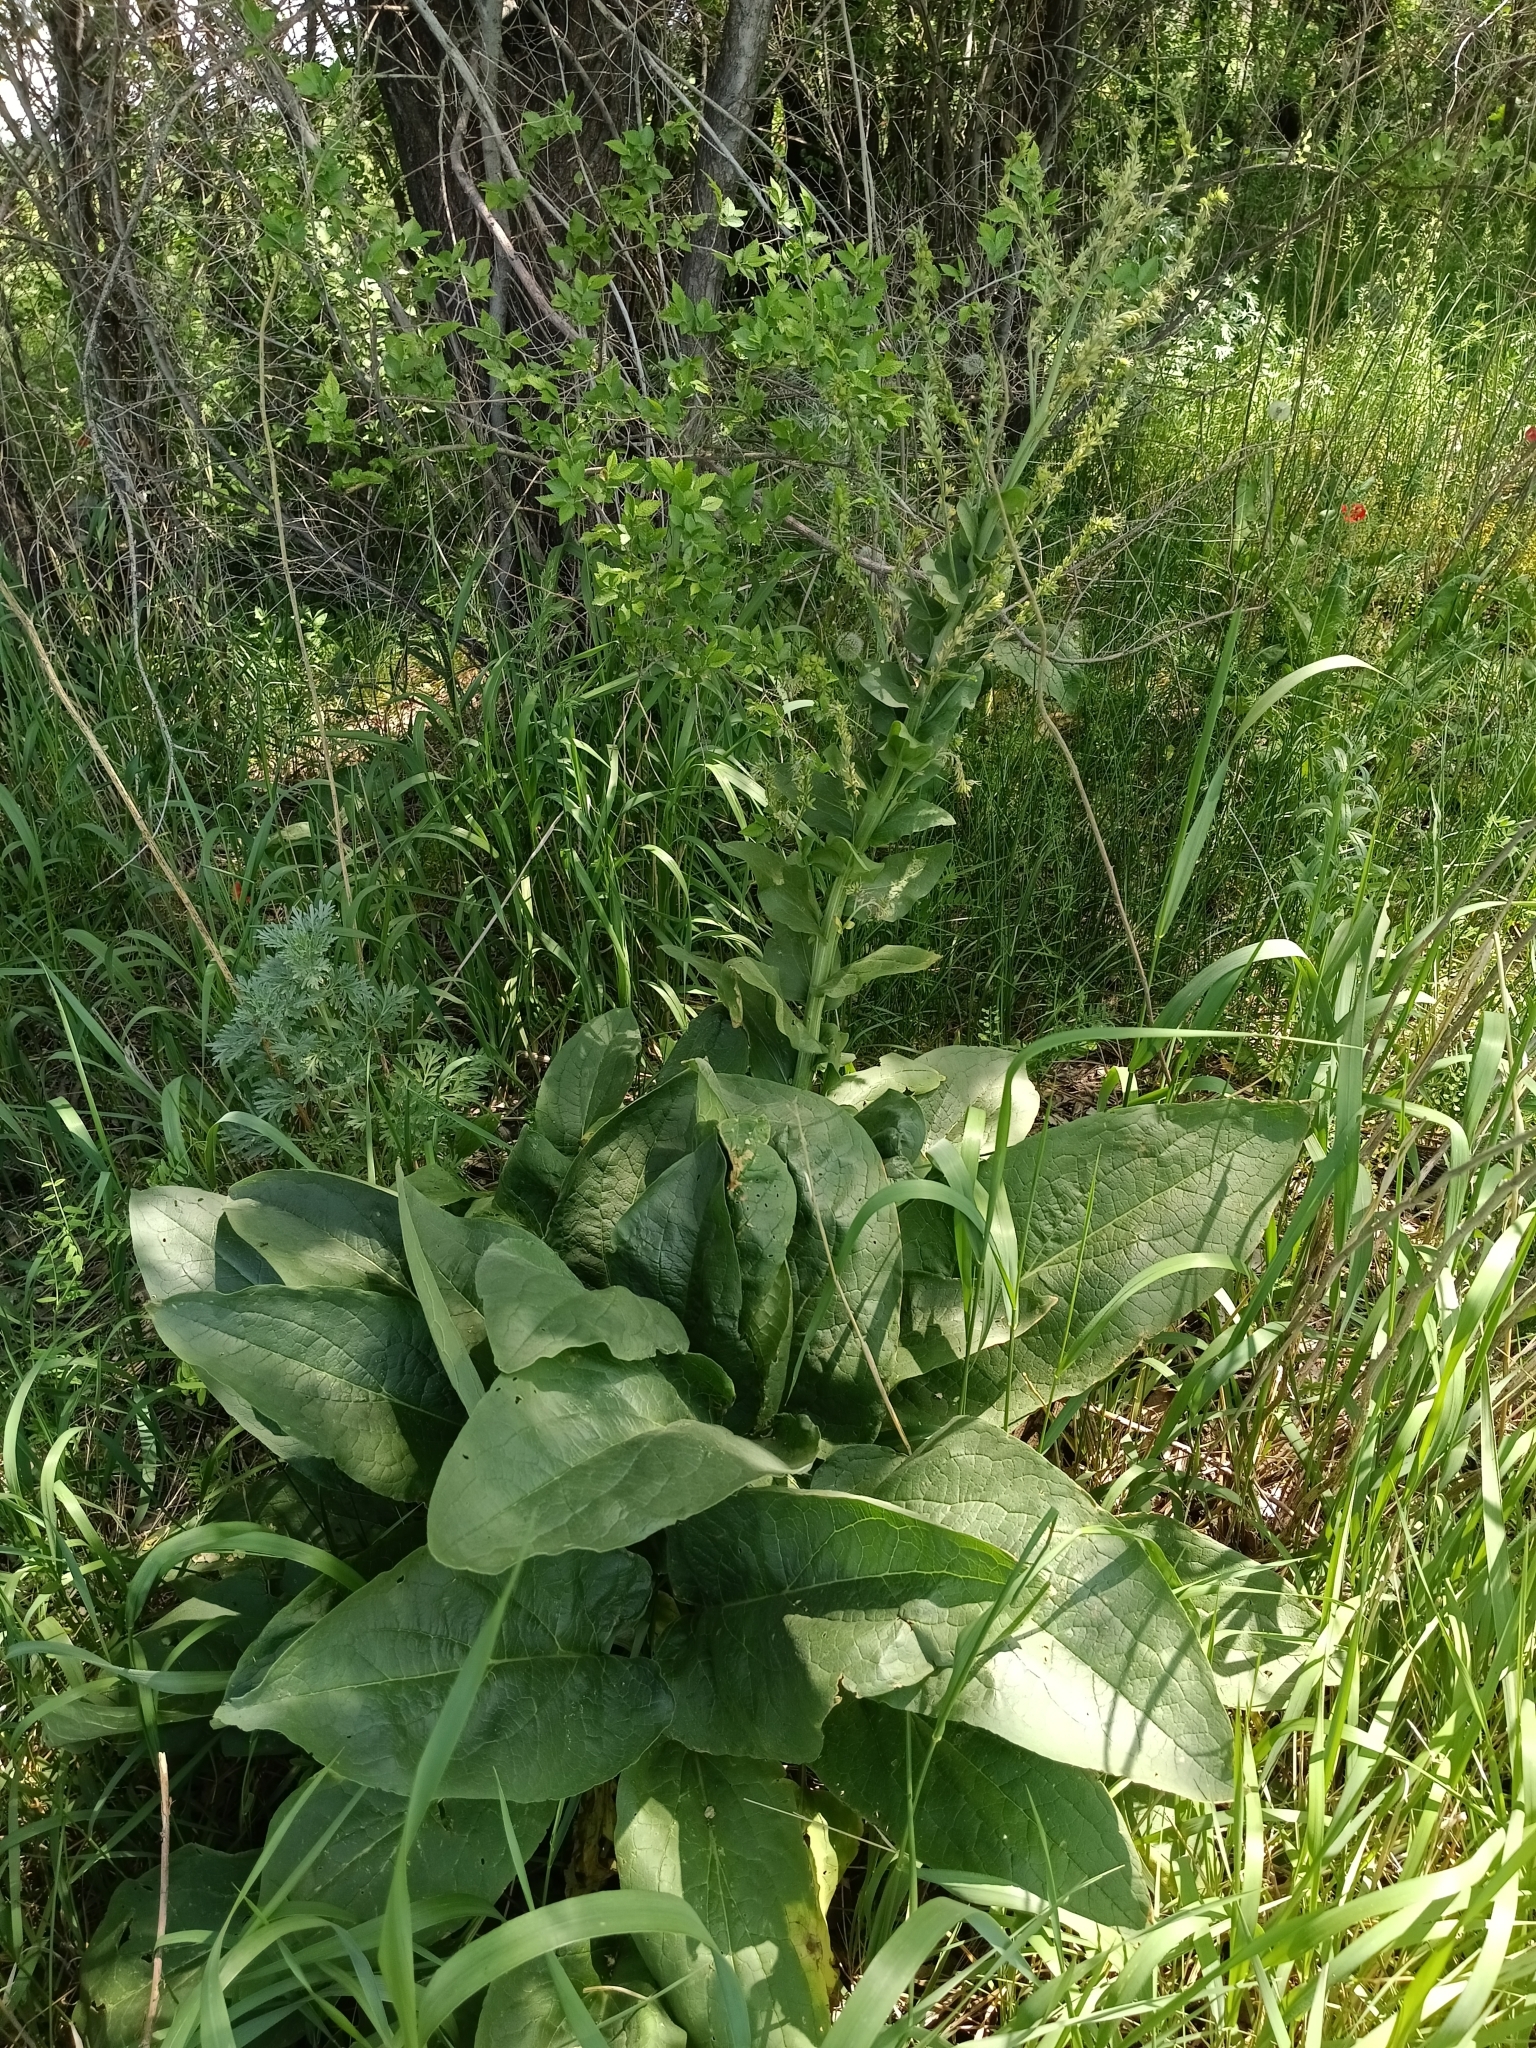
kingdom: Plantae
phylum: Tracheophyta
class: Magnoliopsida
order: Boraginales
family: Boraginaceae
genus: Solenanthus
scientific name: Solenanthus circinnatus
